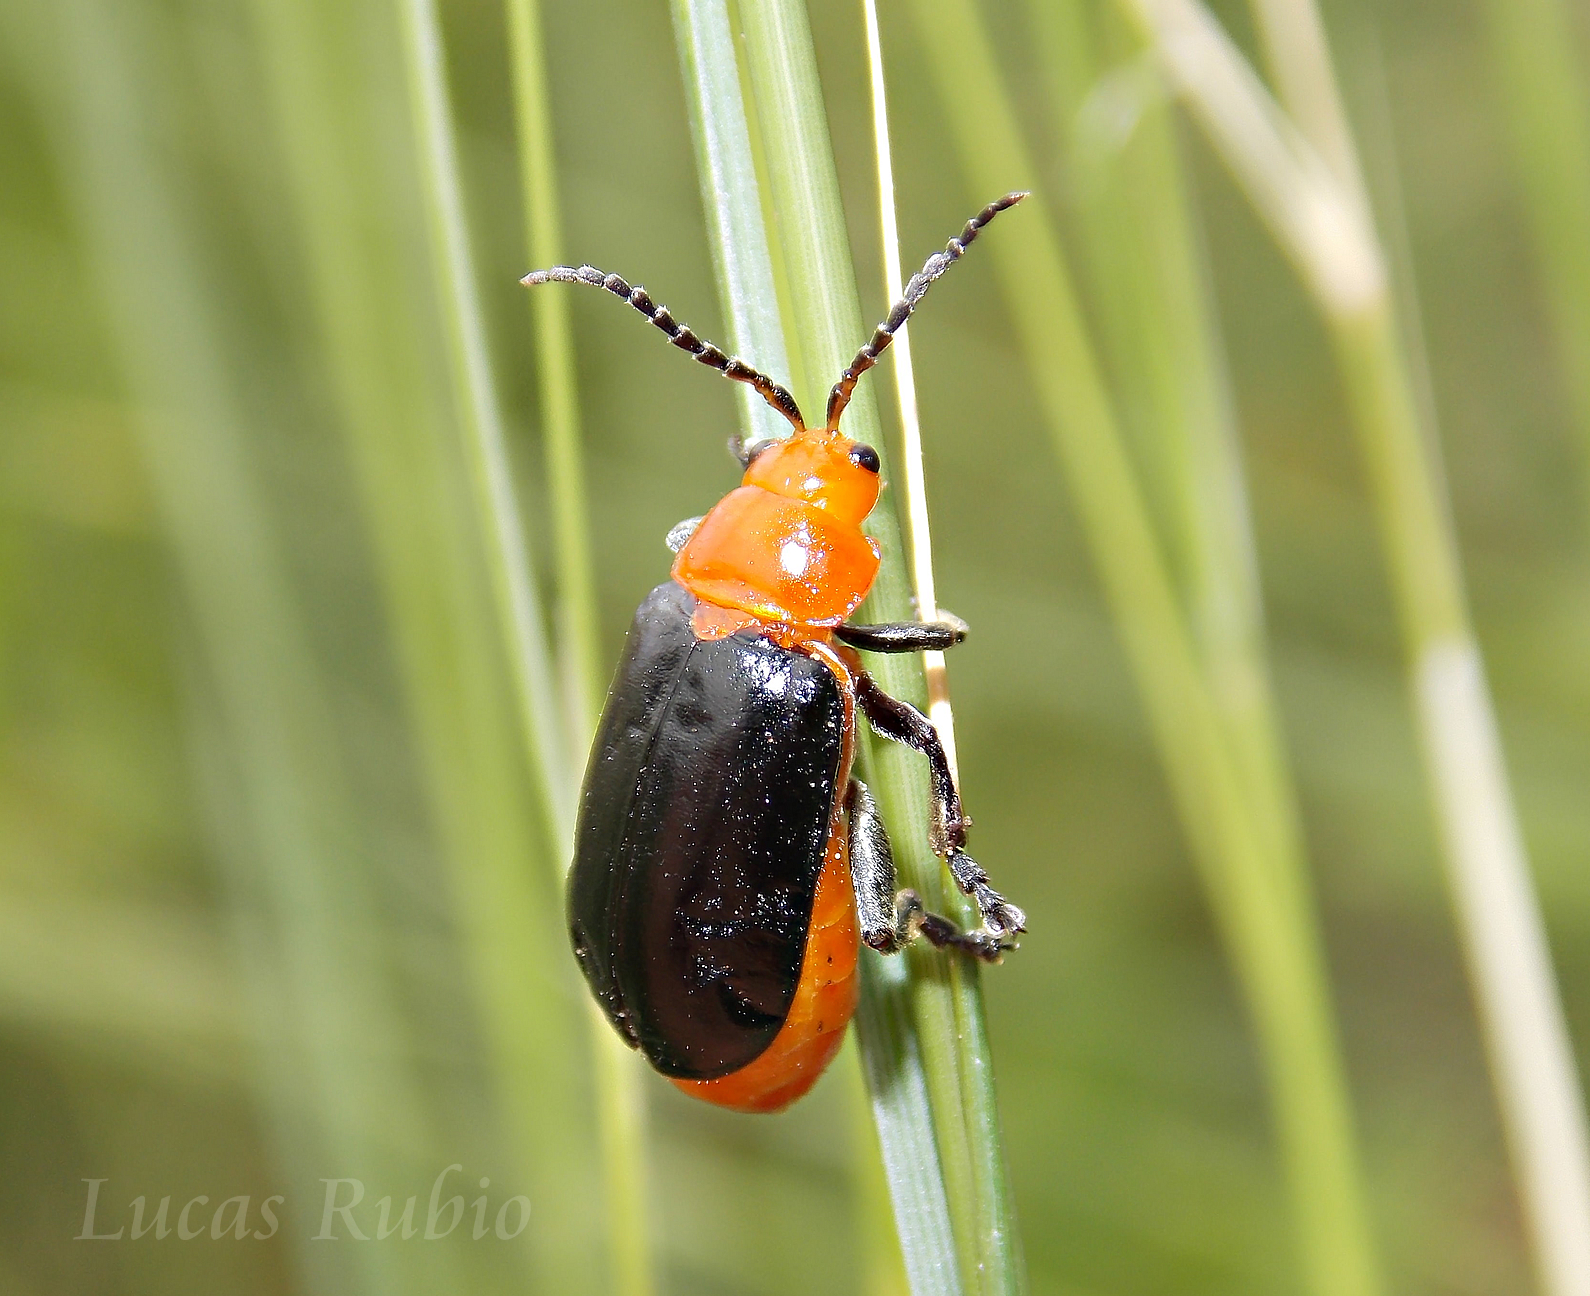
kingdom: Animalia
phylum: Arthropoda
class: Insecta
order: Coleoptera
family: Chrysomelidae
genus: Cacoscelis
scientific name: Cacoscelis
